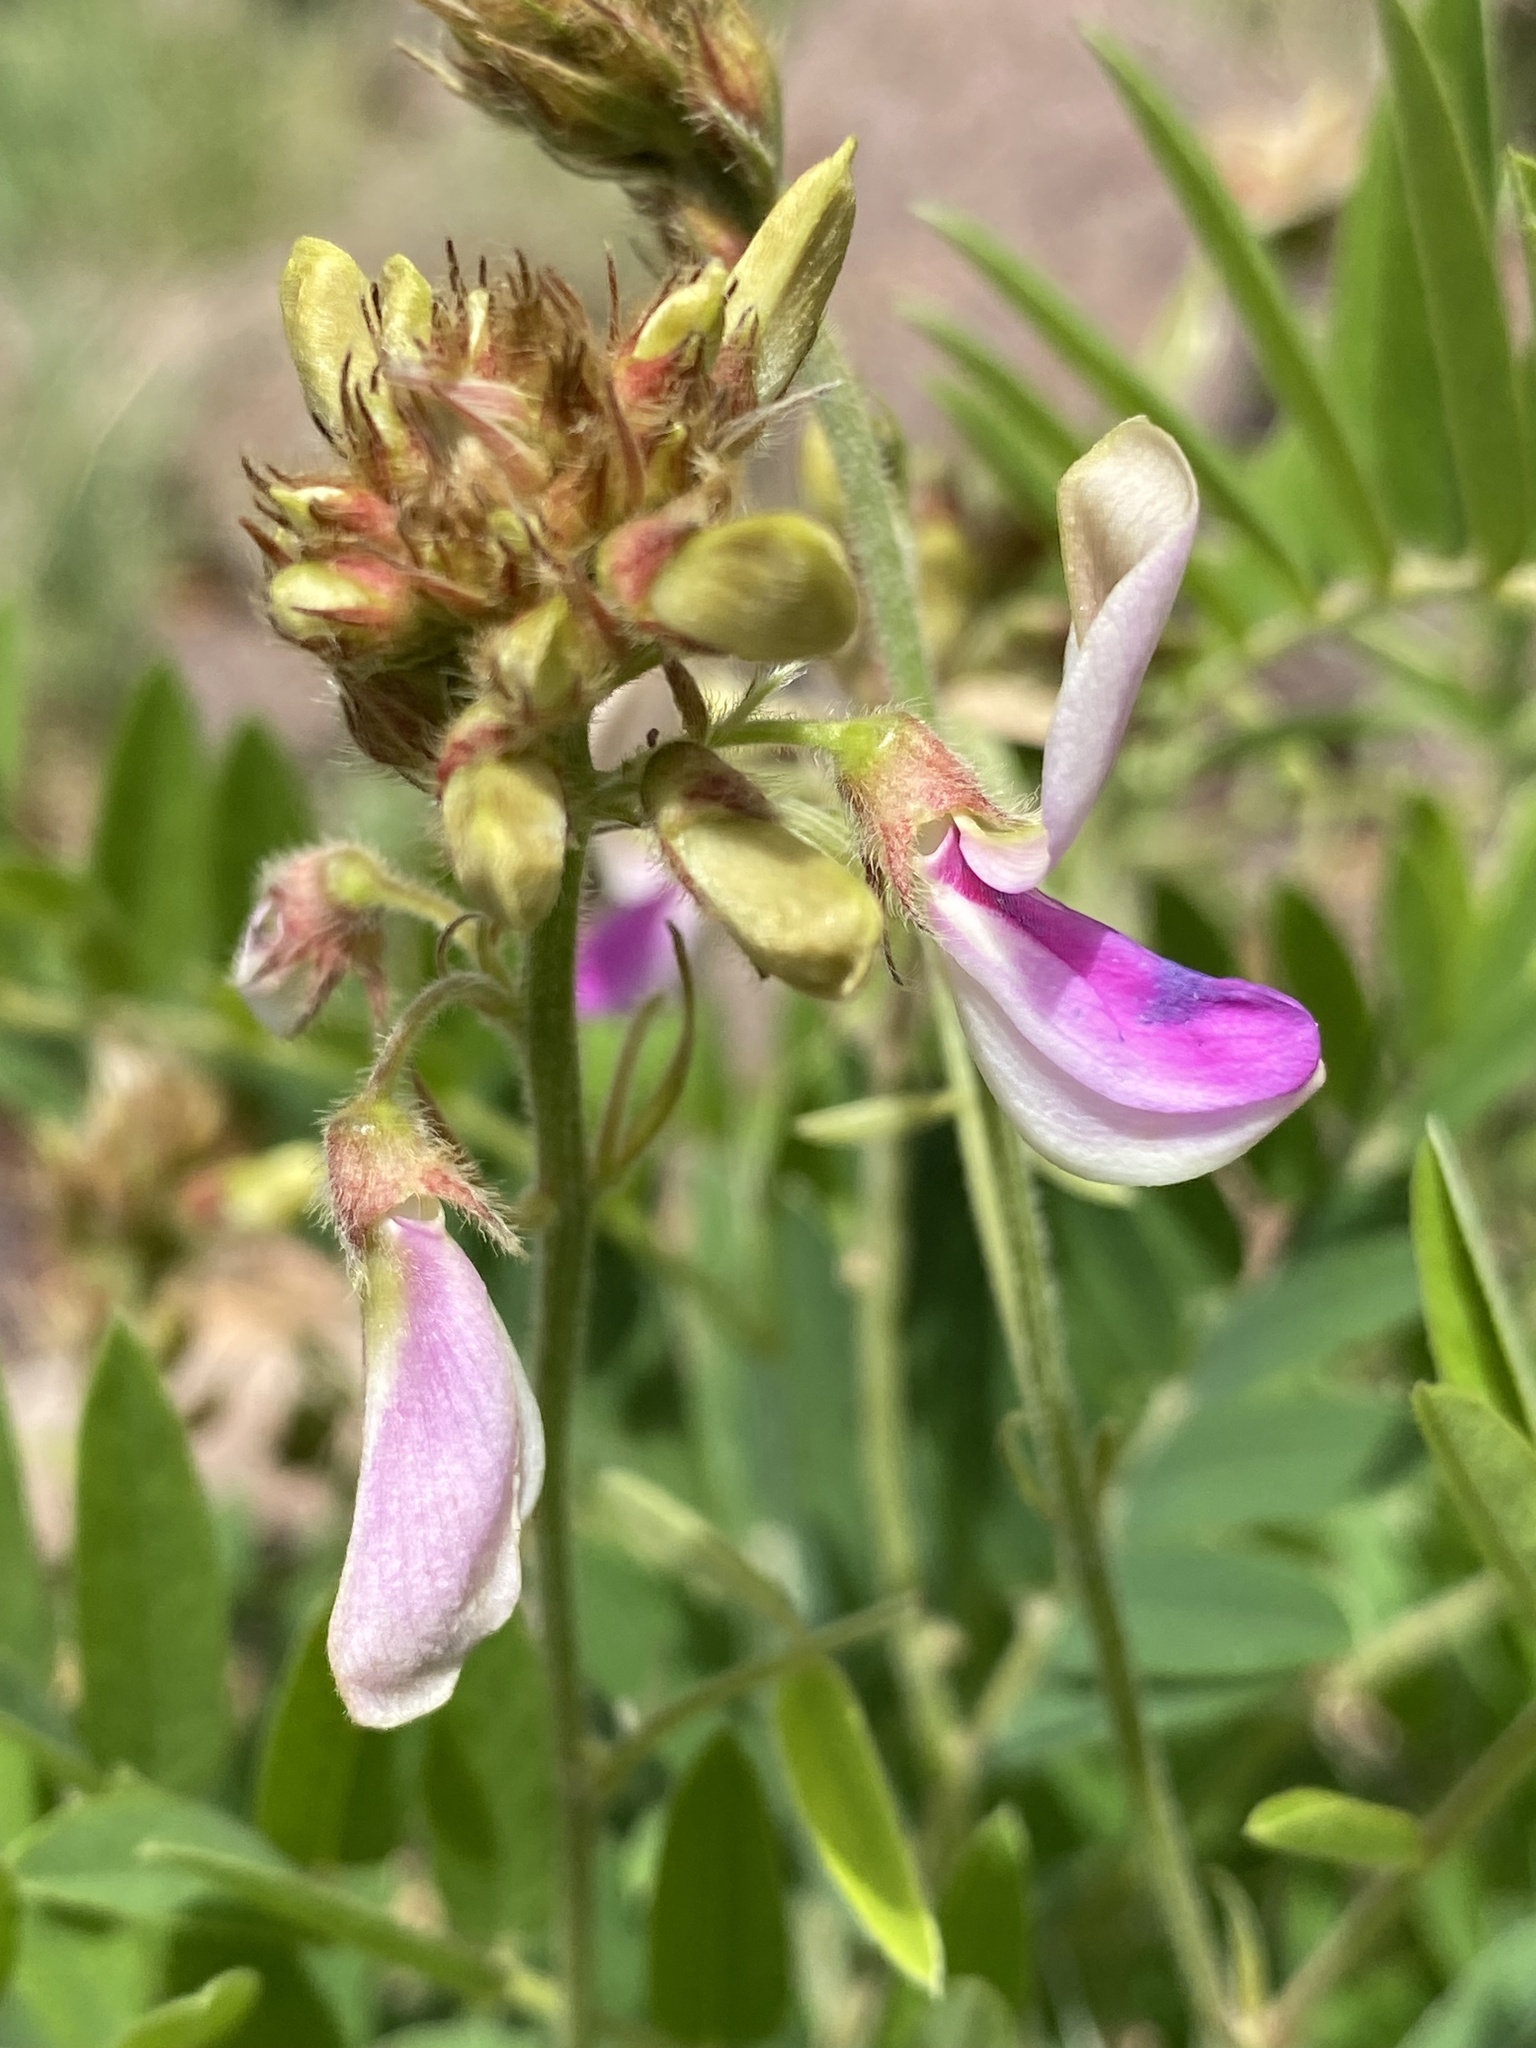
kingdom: Plantae
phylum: Tracheophyta
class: Magnoliopsida
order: Fabales
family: Fabaceae
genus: Tephrosia
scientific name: Tephrosia thurberi
